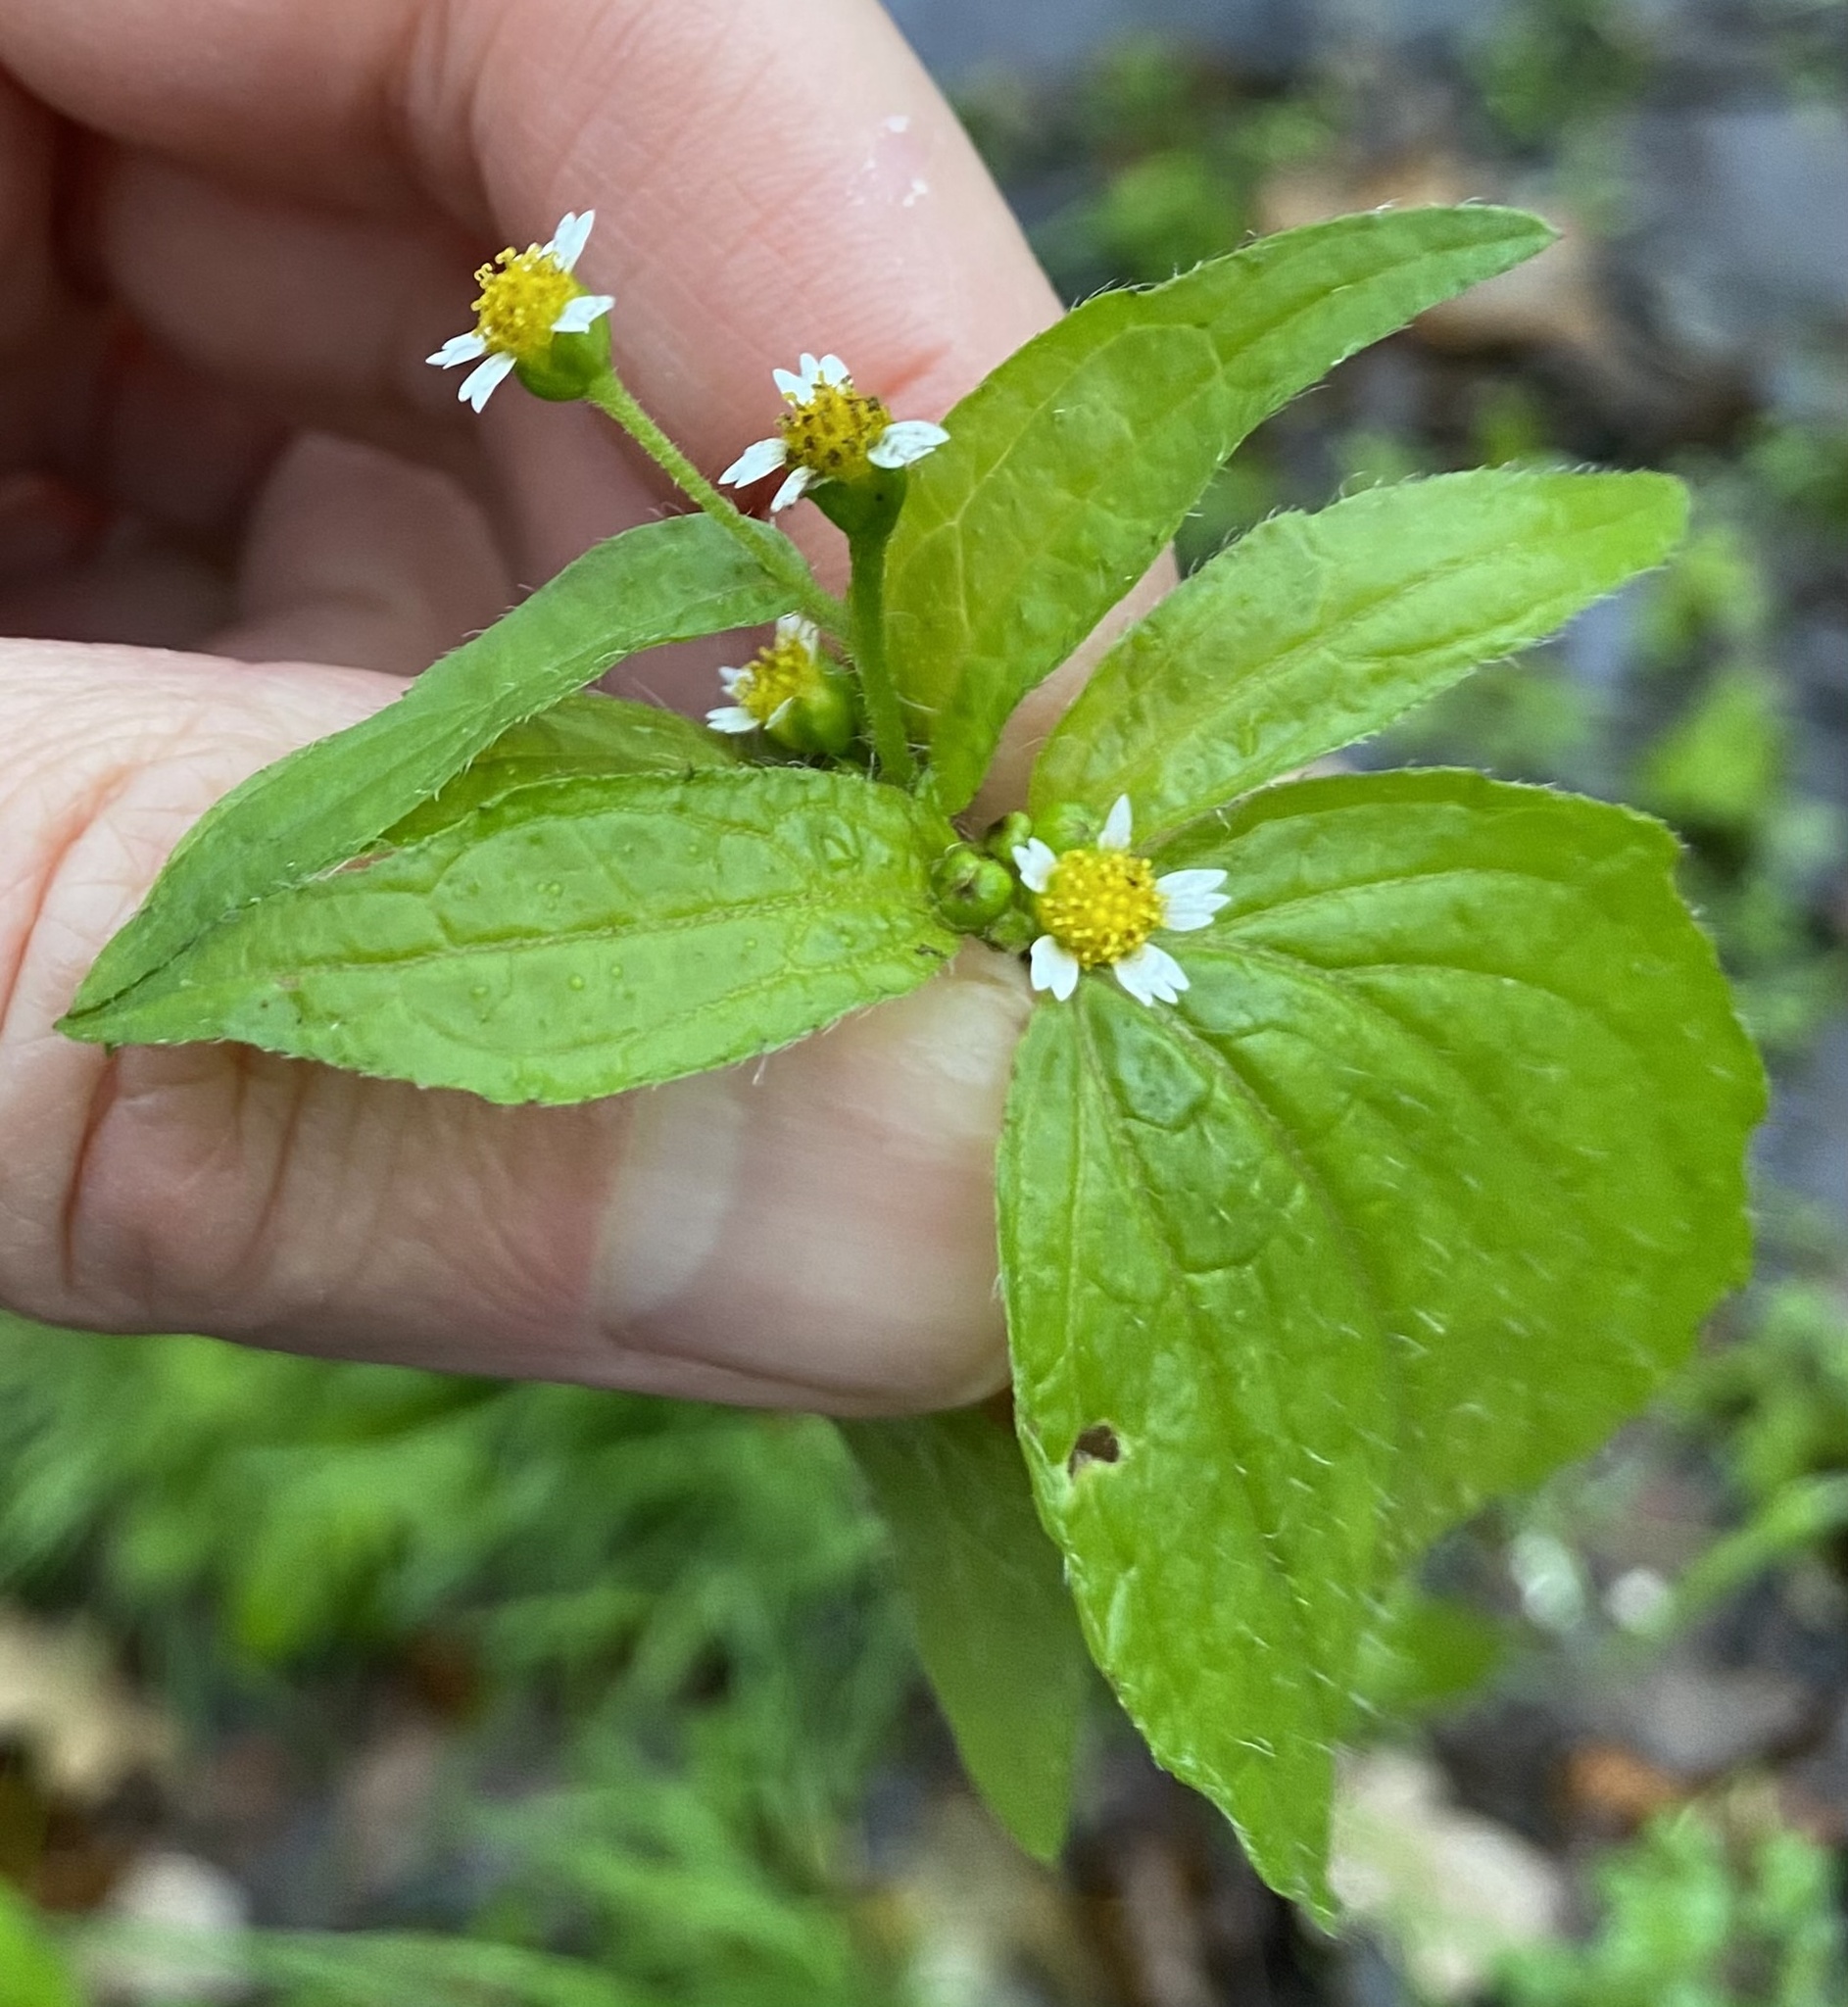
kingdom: Plantae
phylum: Tracheophyta
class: Magnoliopsida
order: Asterales
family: Asteraceae
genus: Galinsoga
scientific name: Galinsoga quadriradiata
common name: Shaggy soldier
